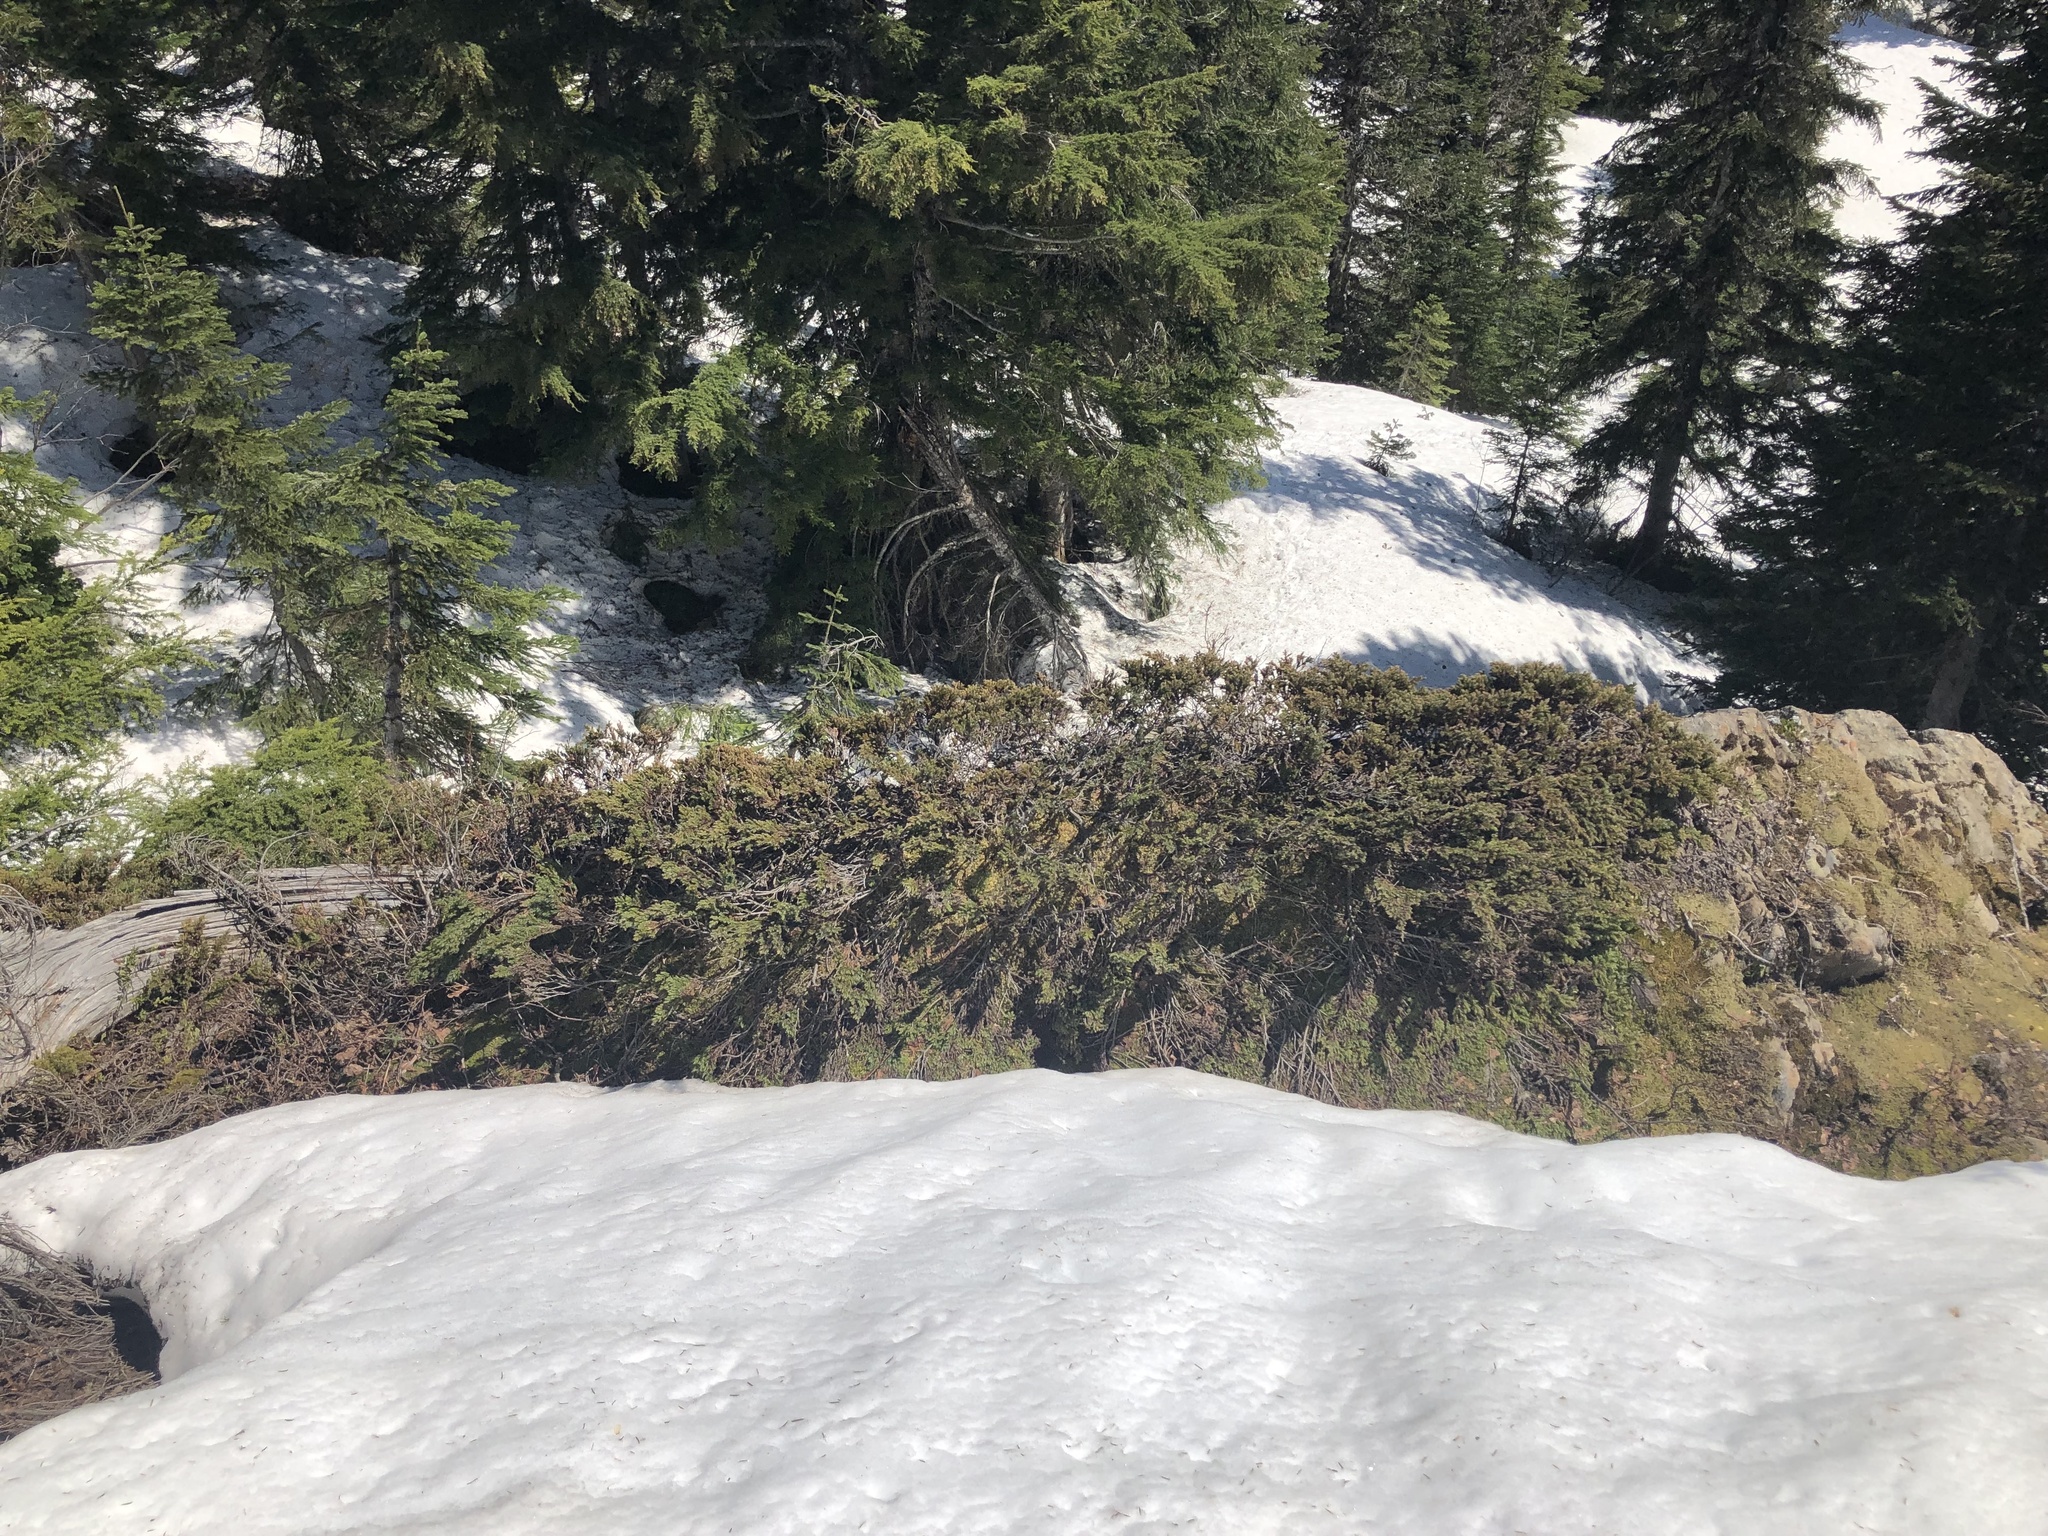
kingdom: Plantae
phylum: Tracheophyta
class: Pinopsida
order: Pinales
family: Cupressaceae
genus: Juniperus
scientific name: Juniperus communis
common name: Common juniper
